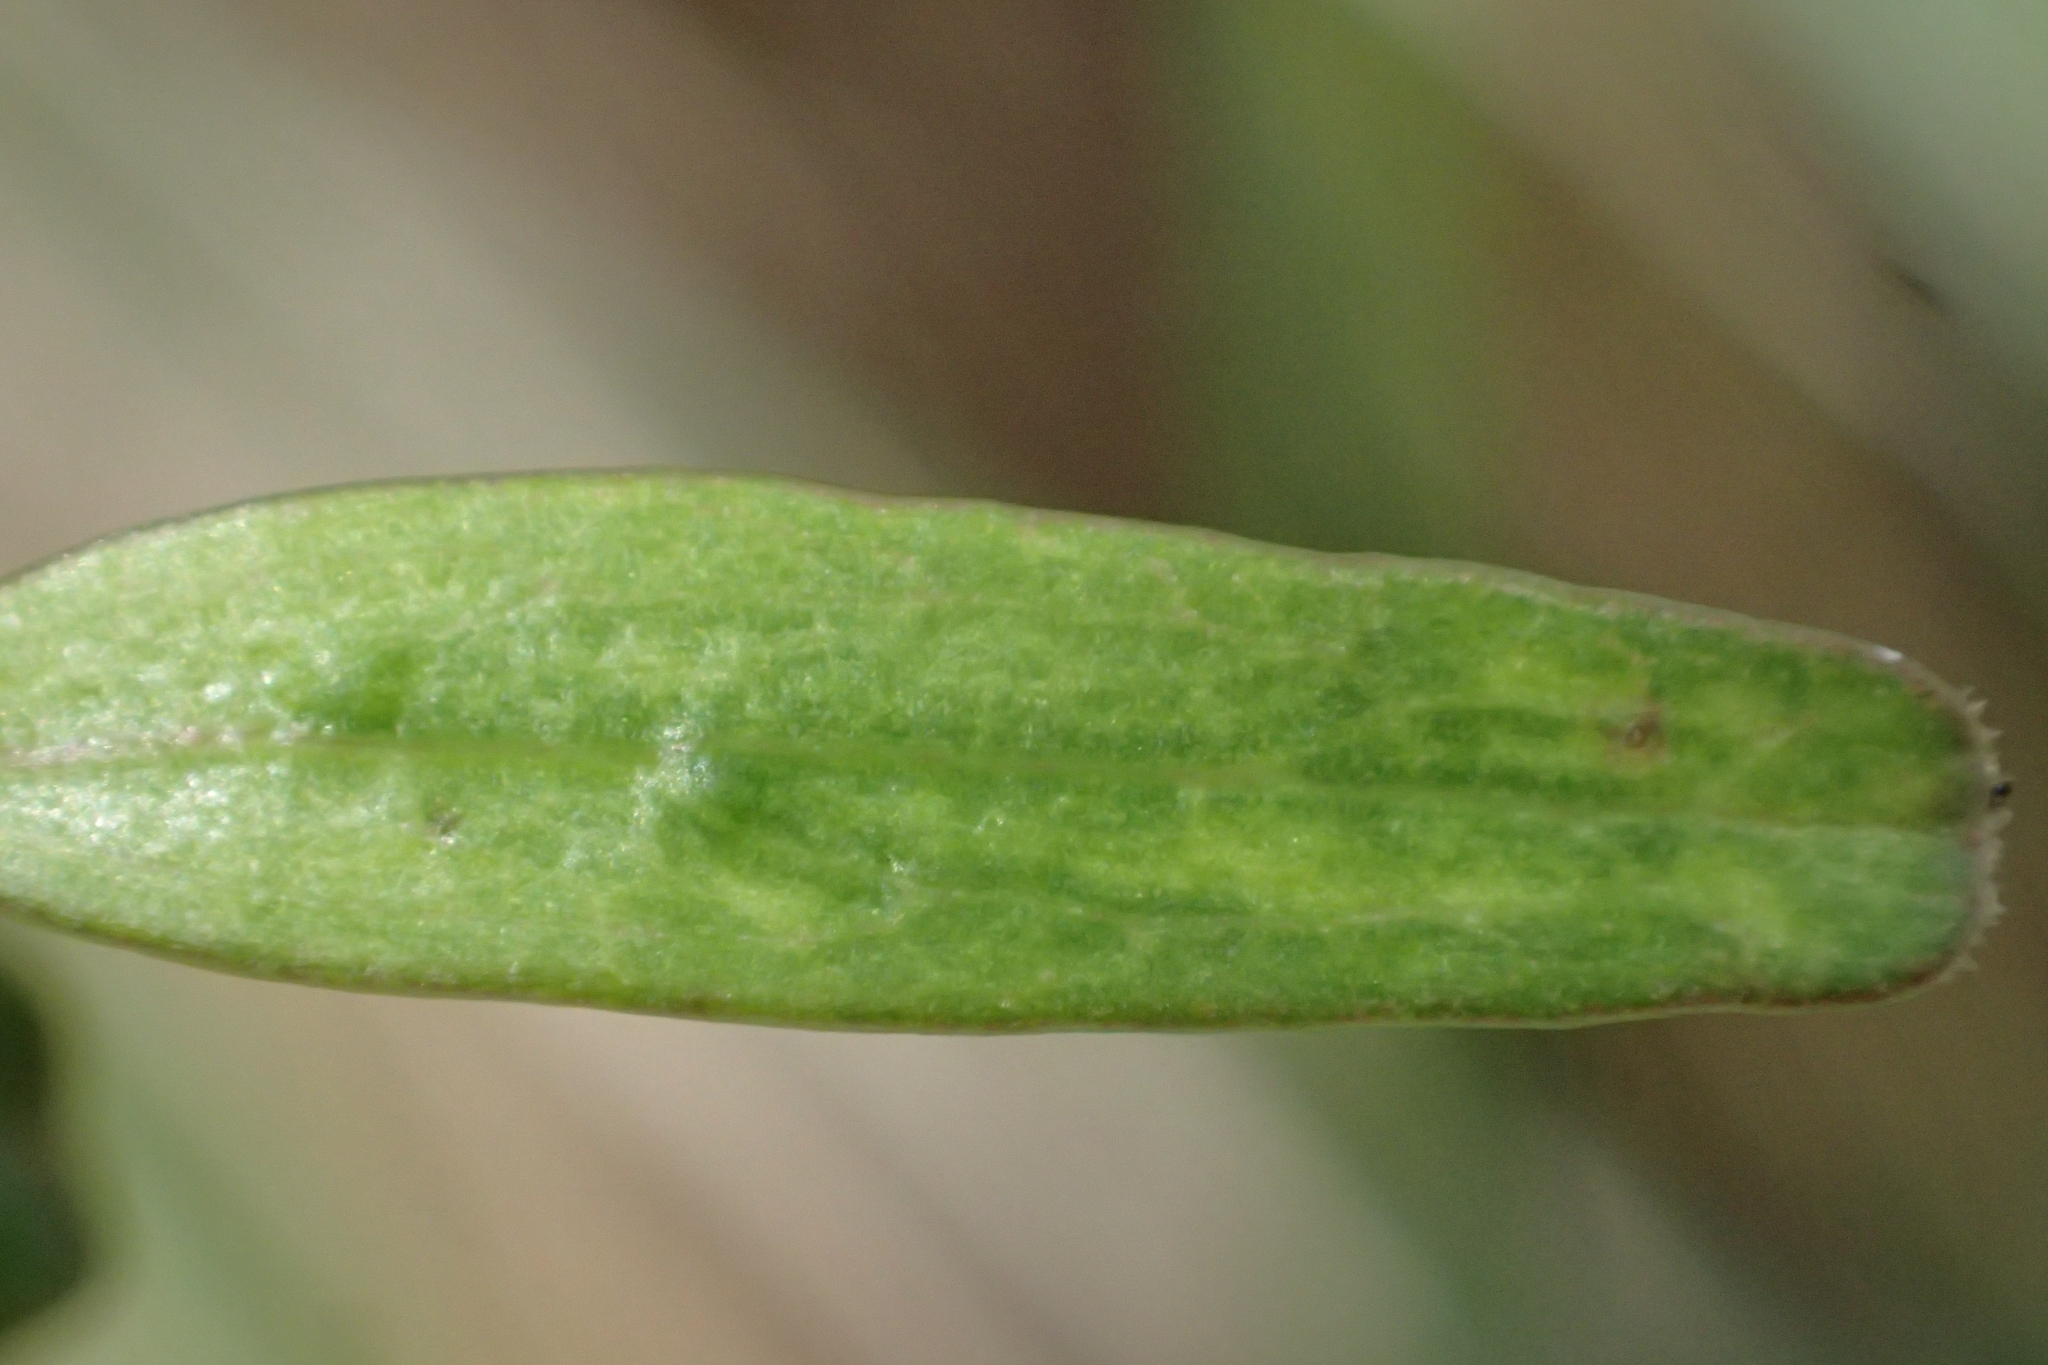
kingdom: Plantae
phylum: Tracheophyta
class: Magnoliopsida
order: Gentianales
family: Rubiaceae
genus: Coprosma
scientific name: Coprosma colensoi
